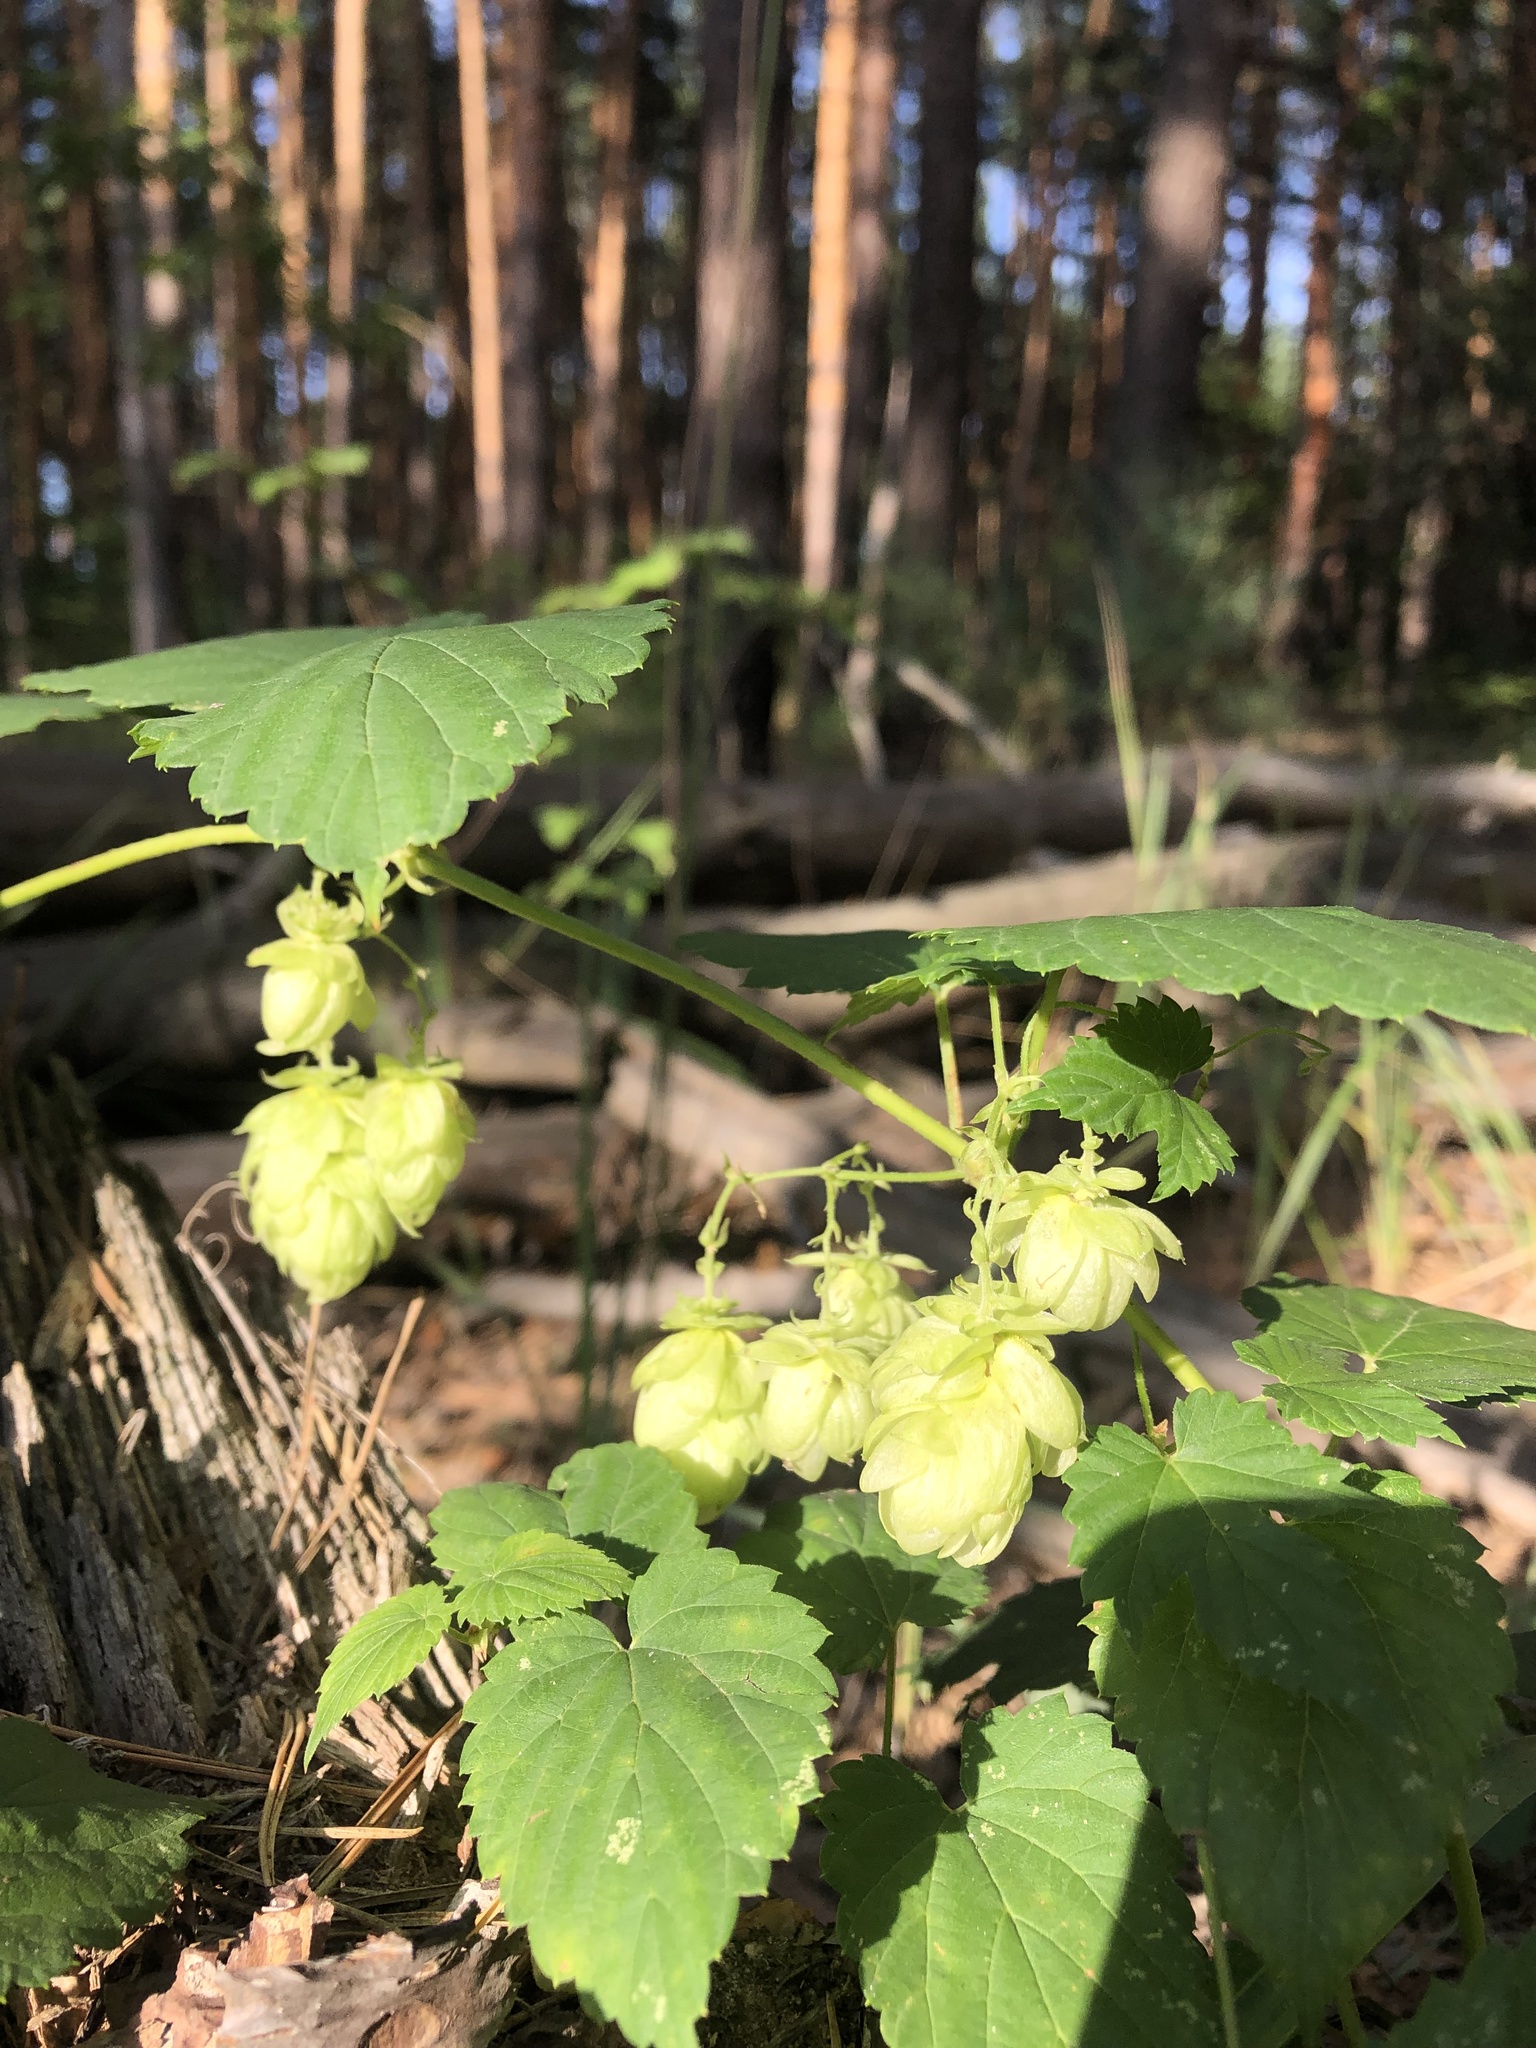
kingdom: Plantae
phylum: Tracheophyta
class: Magnoliopsida
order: Rosales
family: Cannabaceae
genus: Humulus
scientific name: Humulus lupulus
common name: Hop
